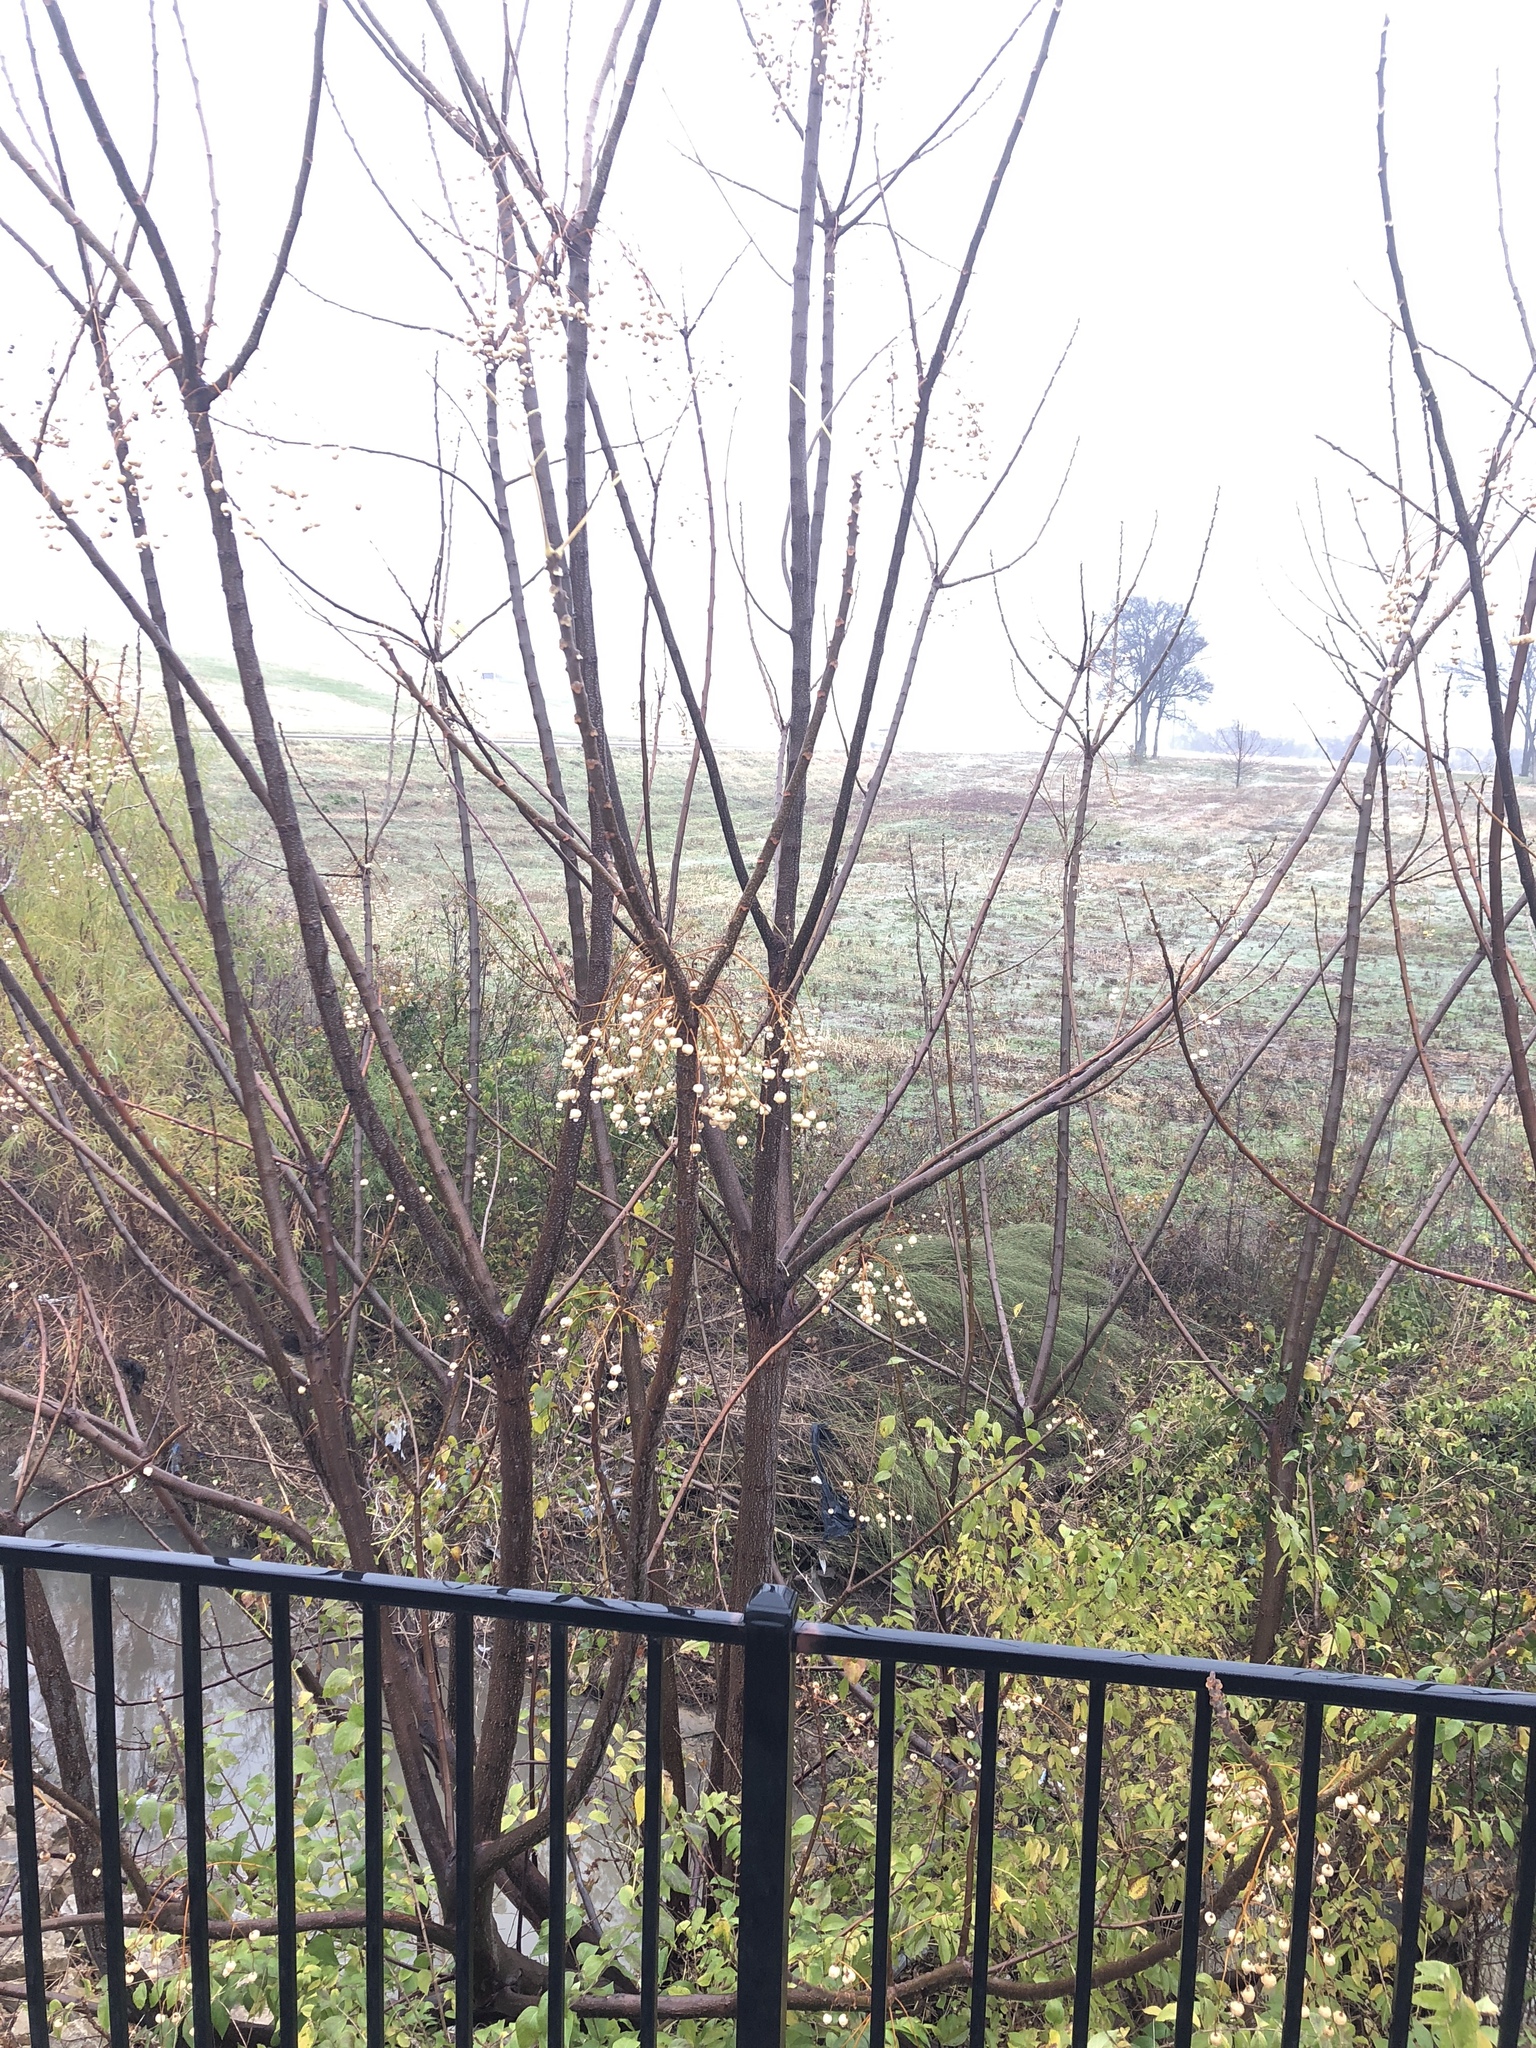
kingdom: Plantae
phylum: Tracheophyta
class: Magnoliopsida
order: Sapindales
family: Meliaceae
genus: Melia
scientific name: Melia azedarach
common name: Chinaberrytree
